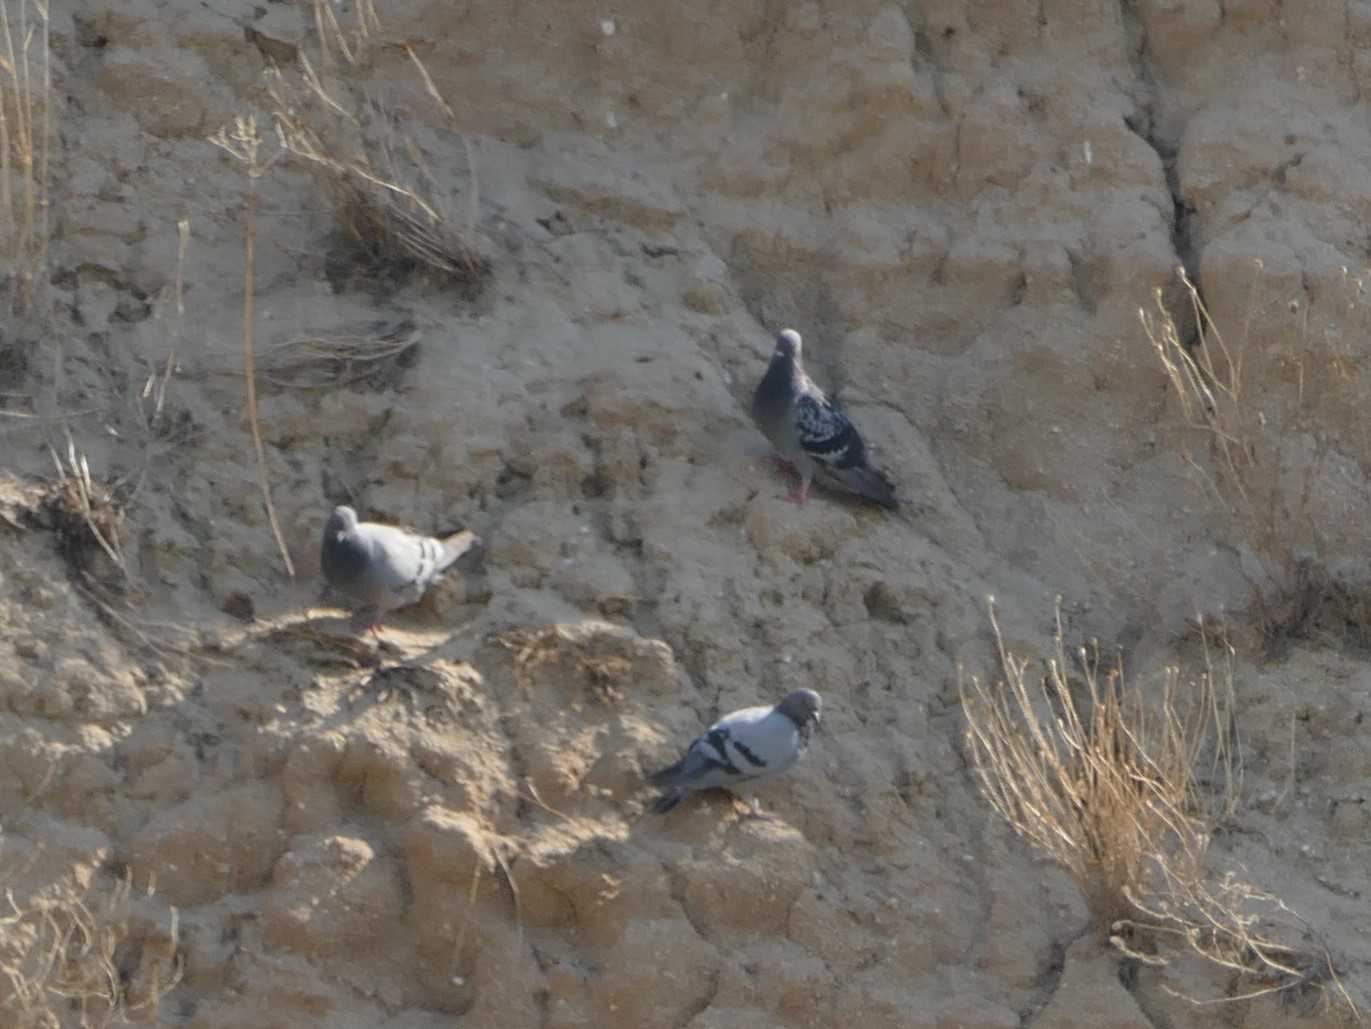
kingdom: Animalia
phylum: Chordata
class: Aves
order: Columbiformes
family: Columbidae
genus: Columba
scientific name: Columba livia
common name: Rock pigeon
